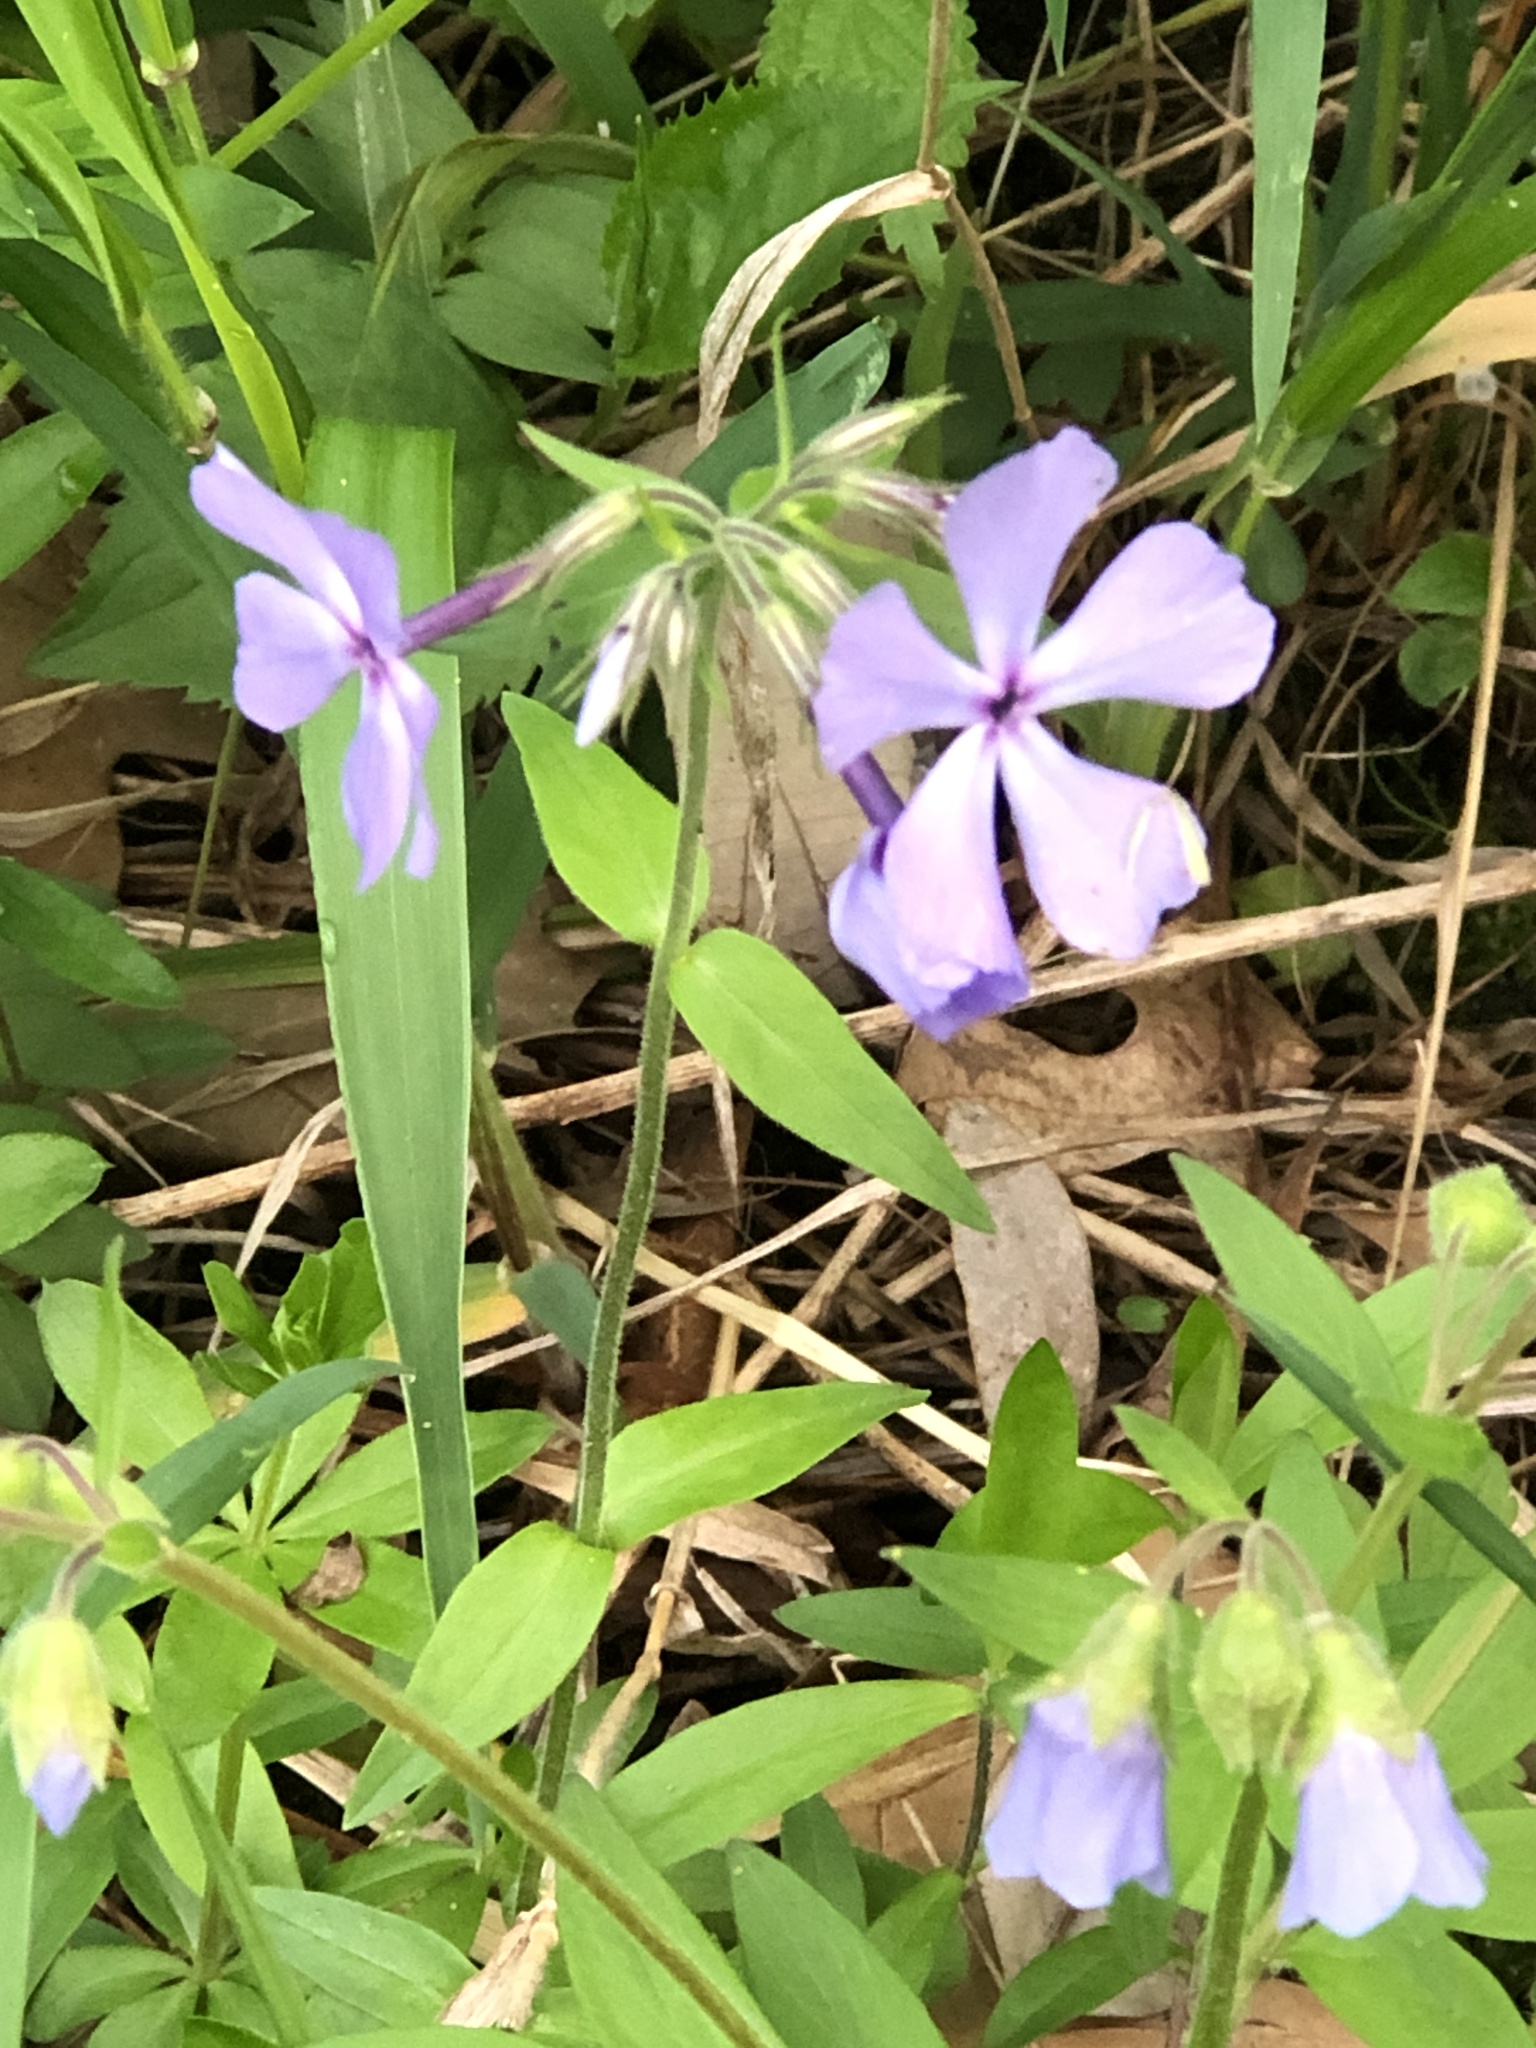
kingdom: Plantae
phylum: Tracheophyta
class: Magnoliopsida
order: Ericales
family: Polemoniaceae
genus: Phlox
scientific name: Phlox divaricata
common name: Blue phlox
